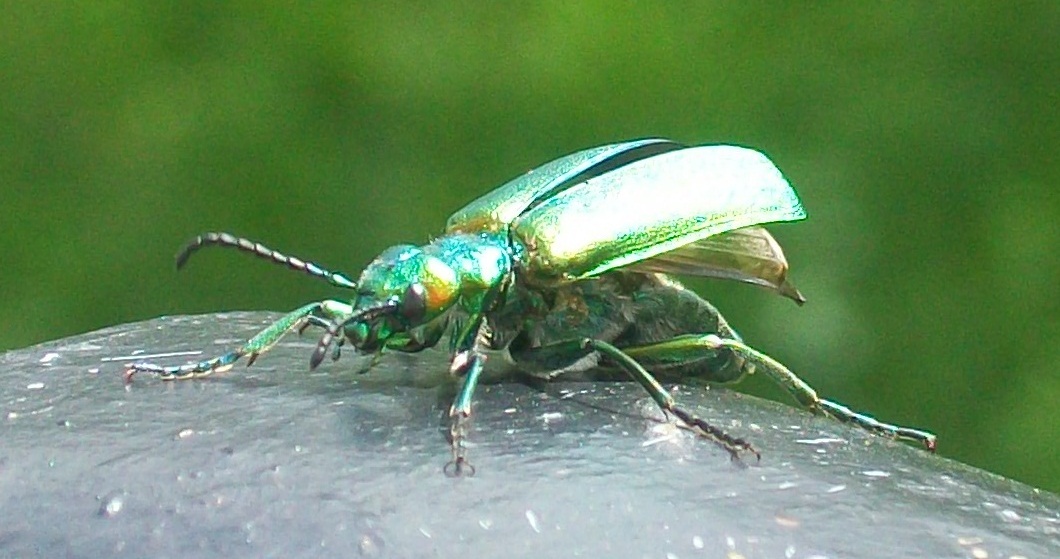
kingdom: Animalia
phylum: Arthropoda
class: Insecta
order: Coleoptera
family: Meloidae
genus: Lytta
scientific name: Lytta vesicatoria
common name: Spanish fly
